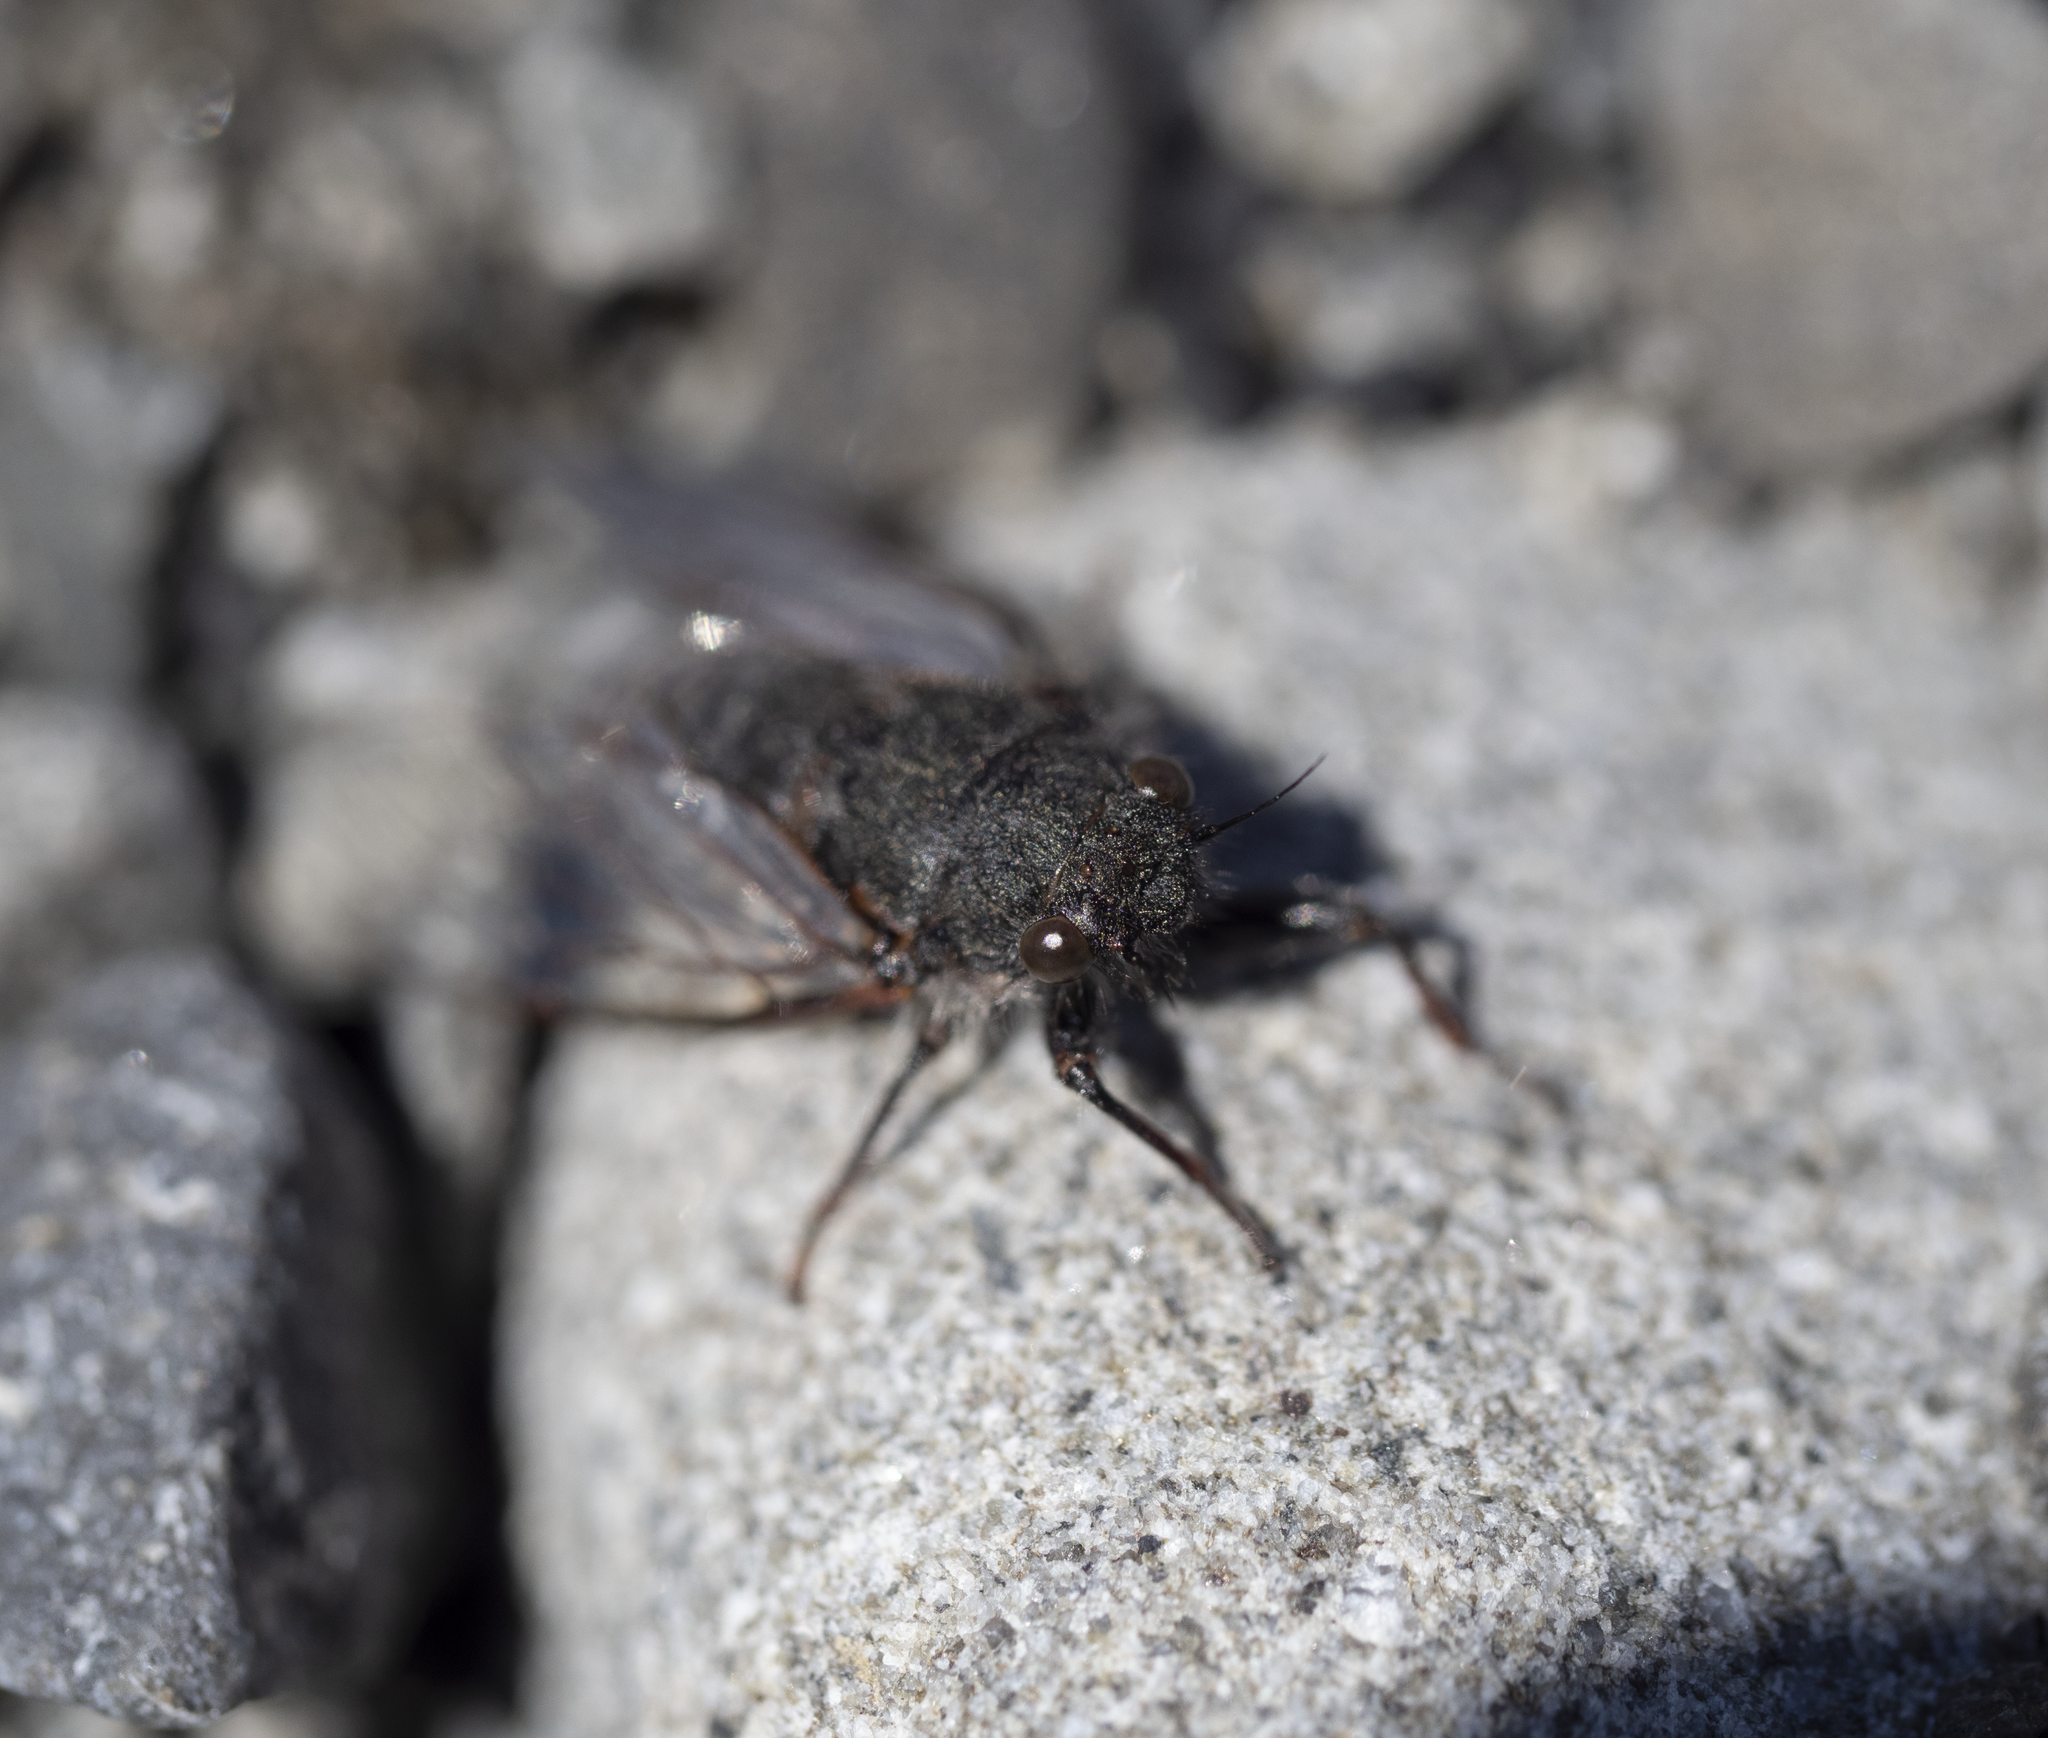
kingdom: Animalia
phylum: Arthropoda
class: Insecta
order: Hemiptera
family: Cicadidae
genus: Maoricicada
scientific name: Maoricicada campbelli
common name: Campbell's cicada
